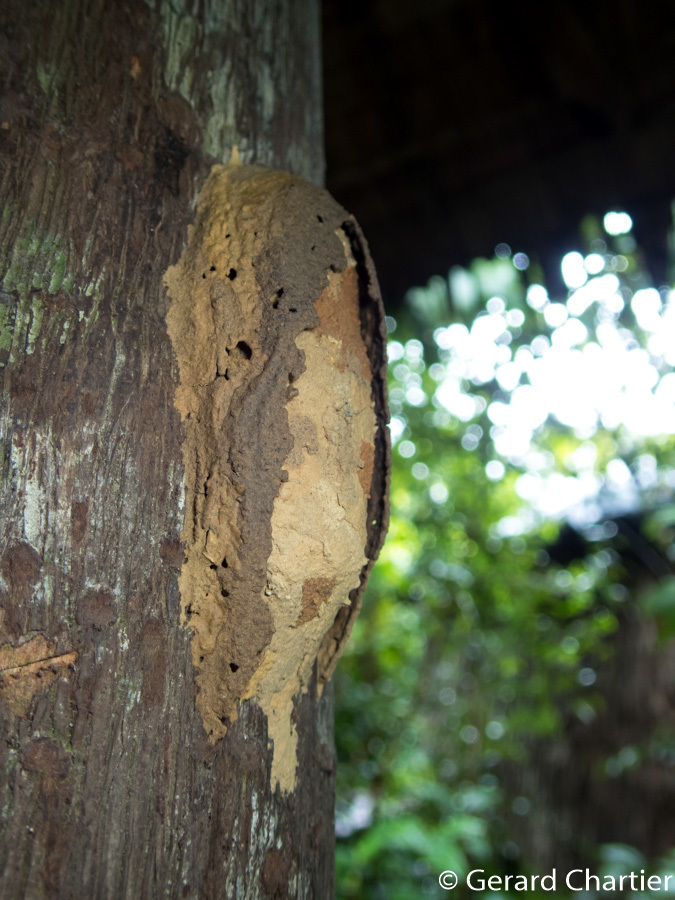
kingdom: Animalia
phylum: Arthropoda
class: Insecta
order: Hymenoptera
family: Eumenidae
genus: Phimenes
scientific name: Phimenes flavopictus
